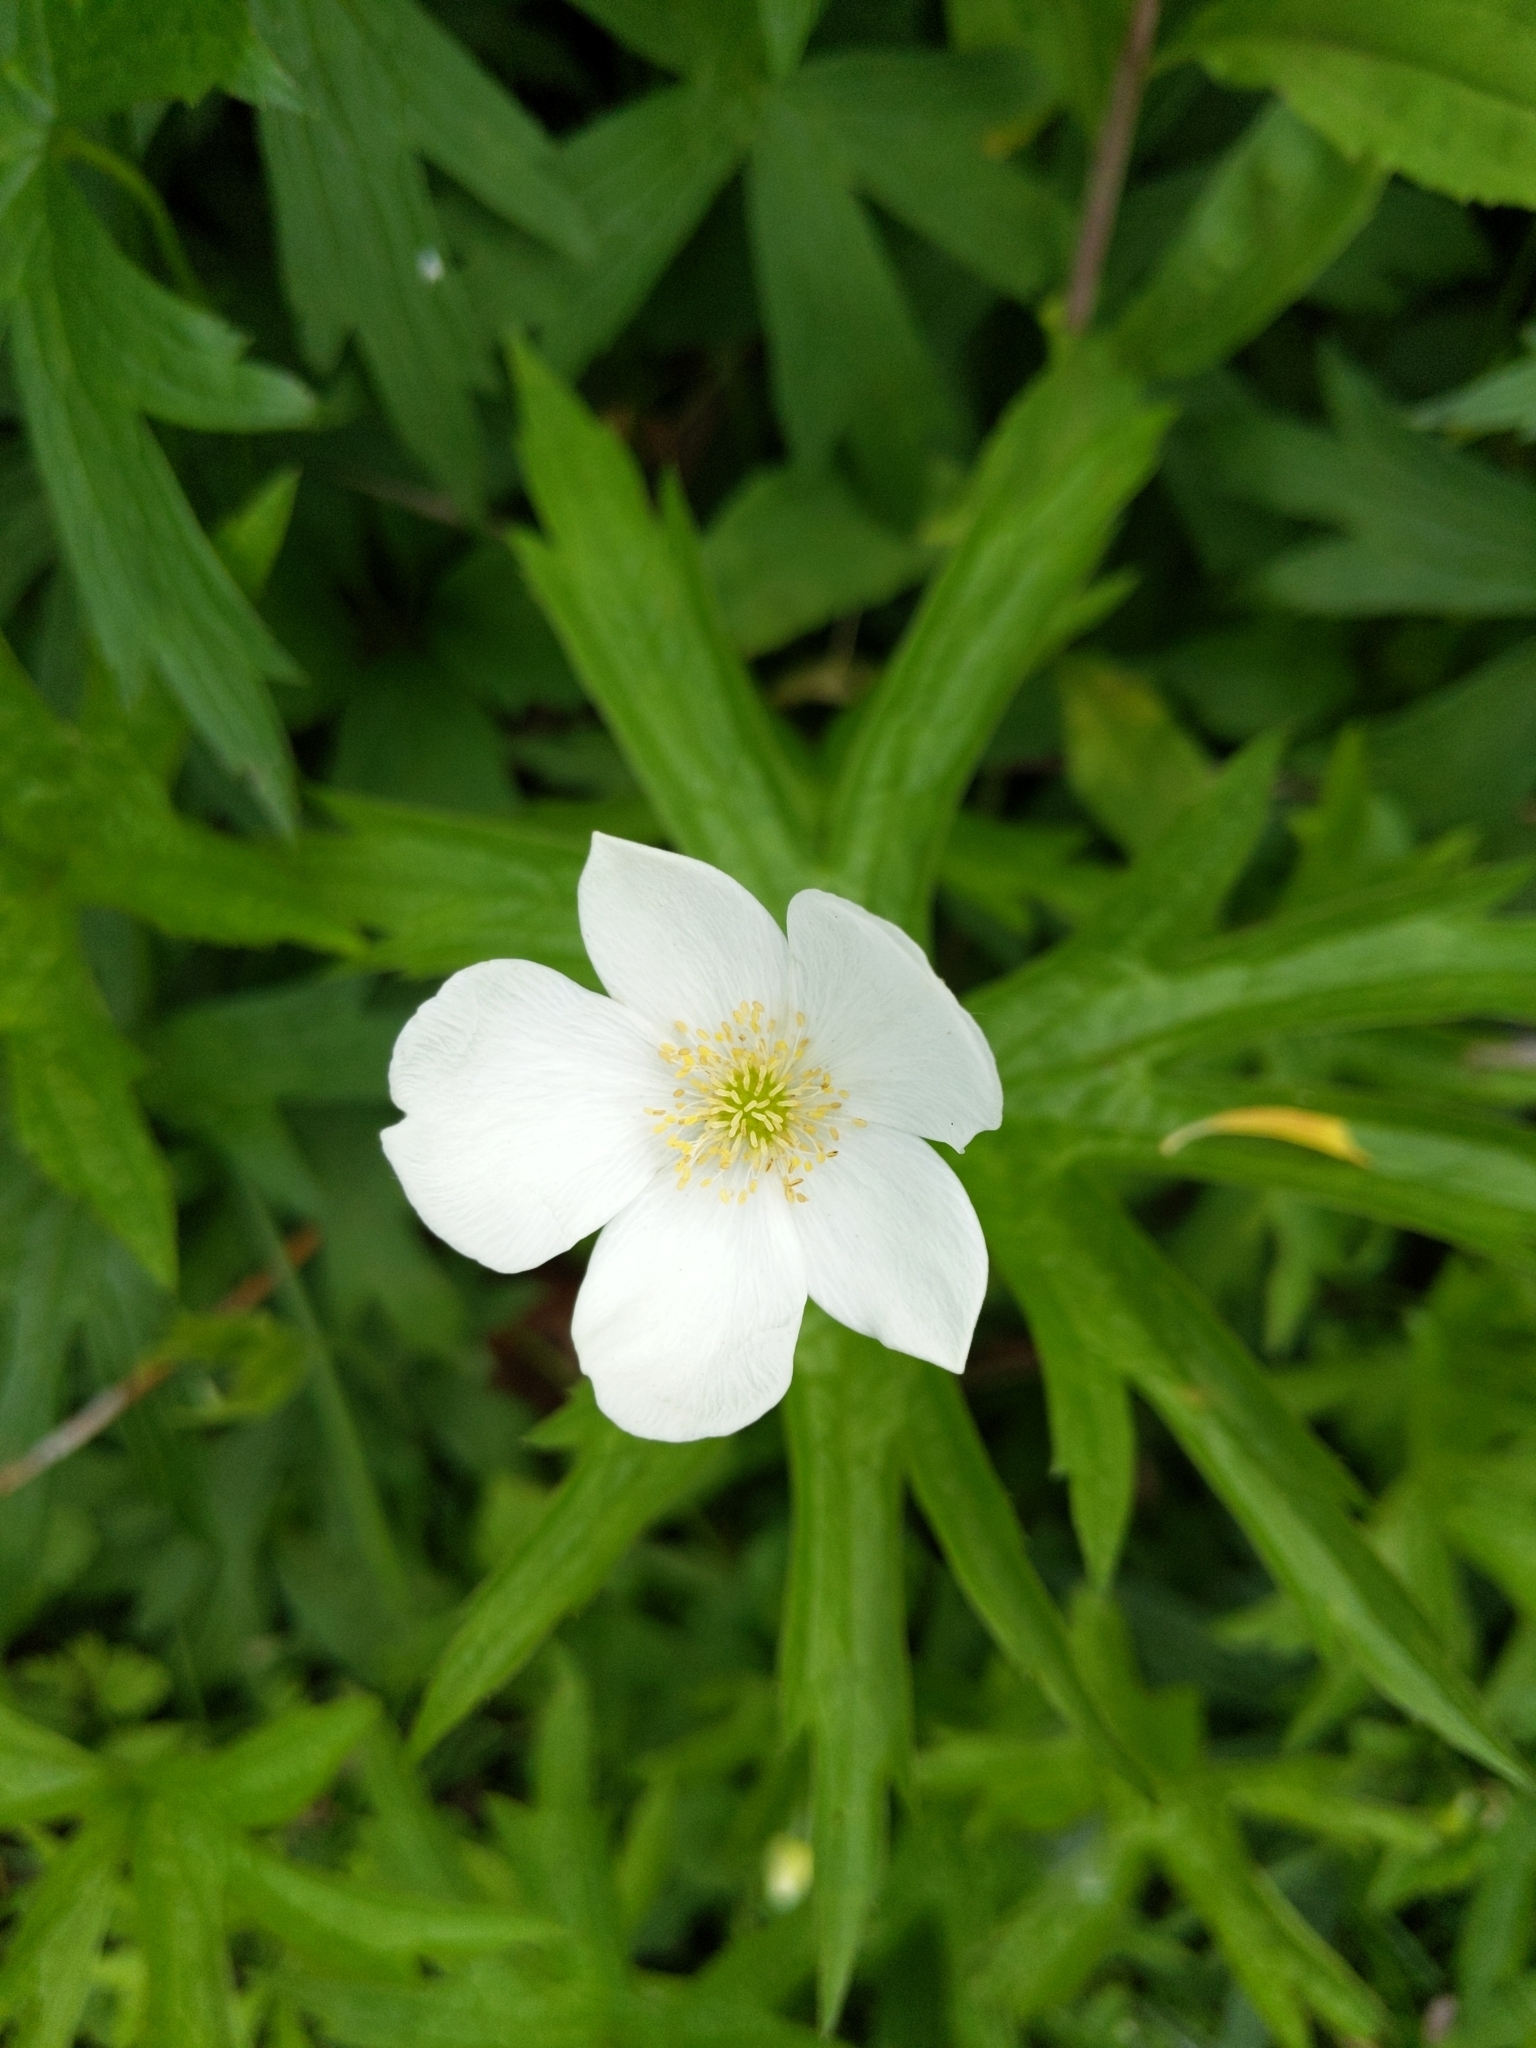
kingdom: Plantae
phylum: Tracheophyta
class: Magnoliopsida
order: Ranunculales
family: Ranunculaceae
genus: Anemonastrum
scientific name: Anemonastrum canadense
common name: Canada anemone
